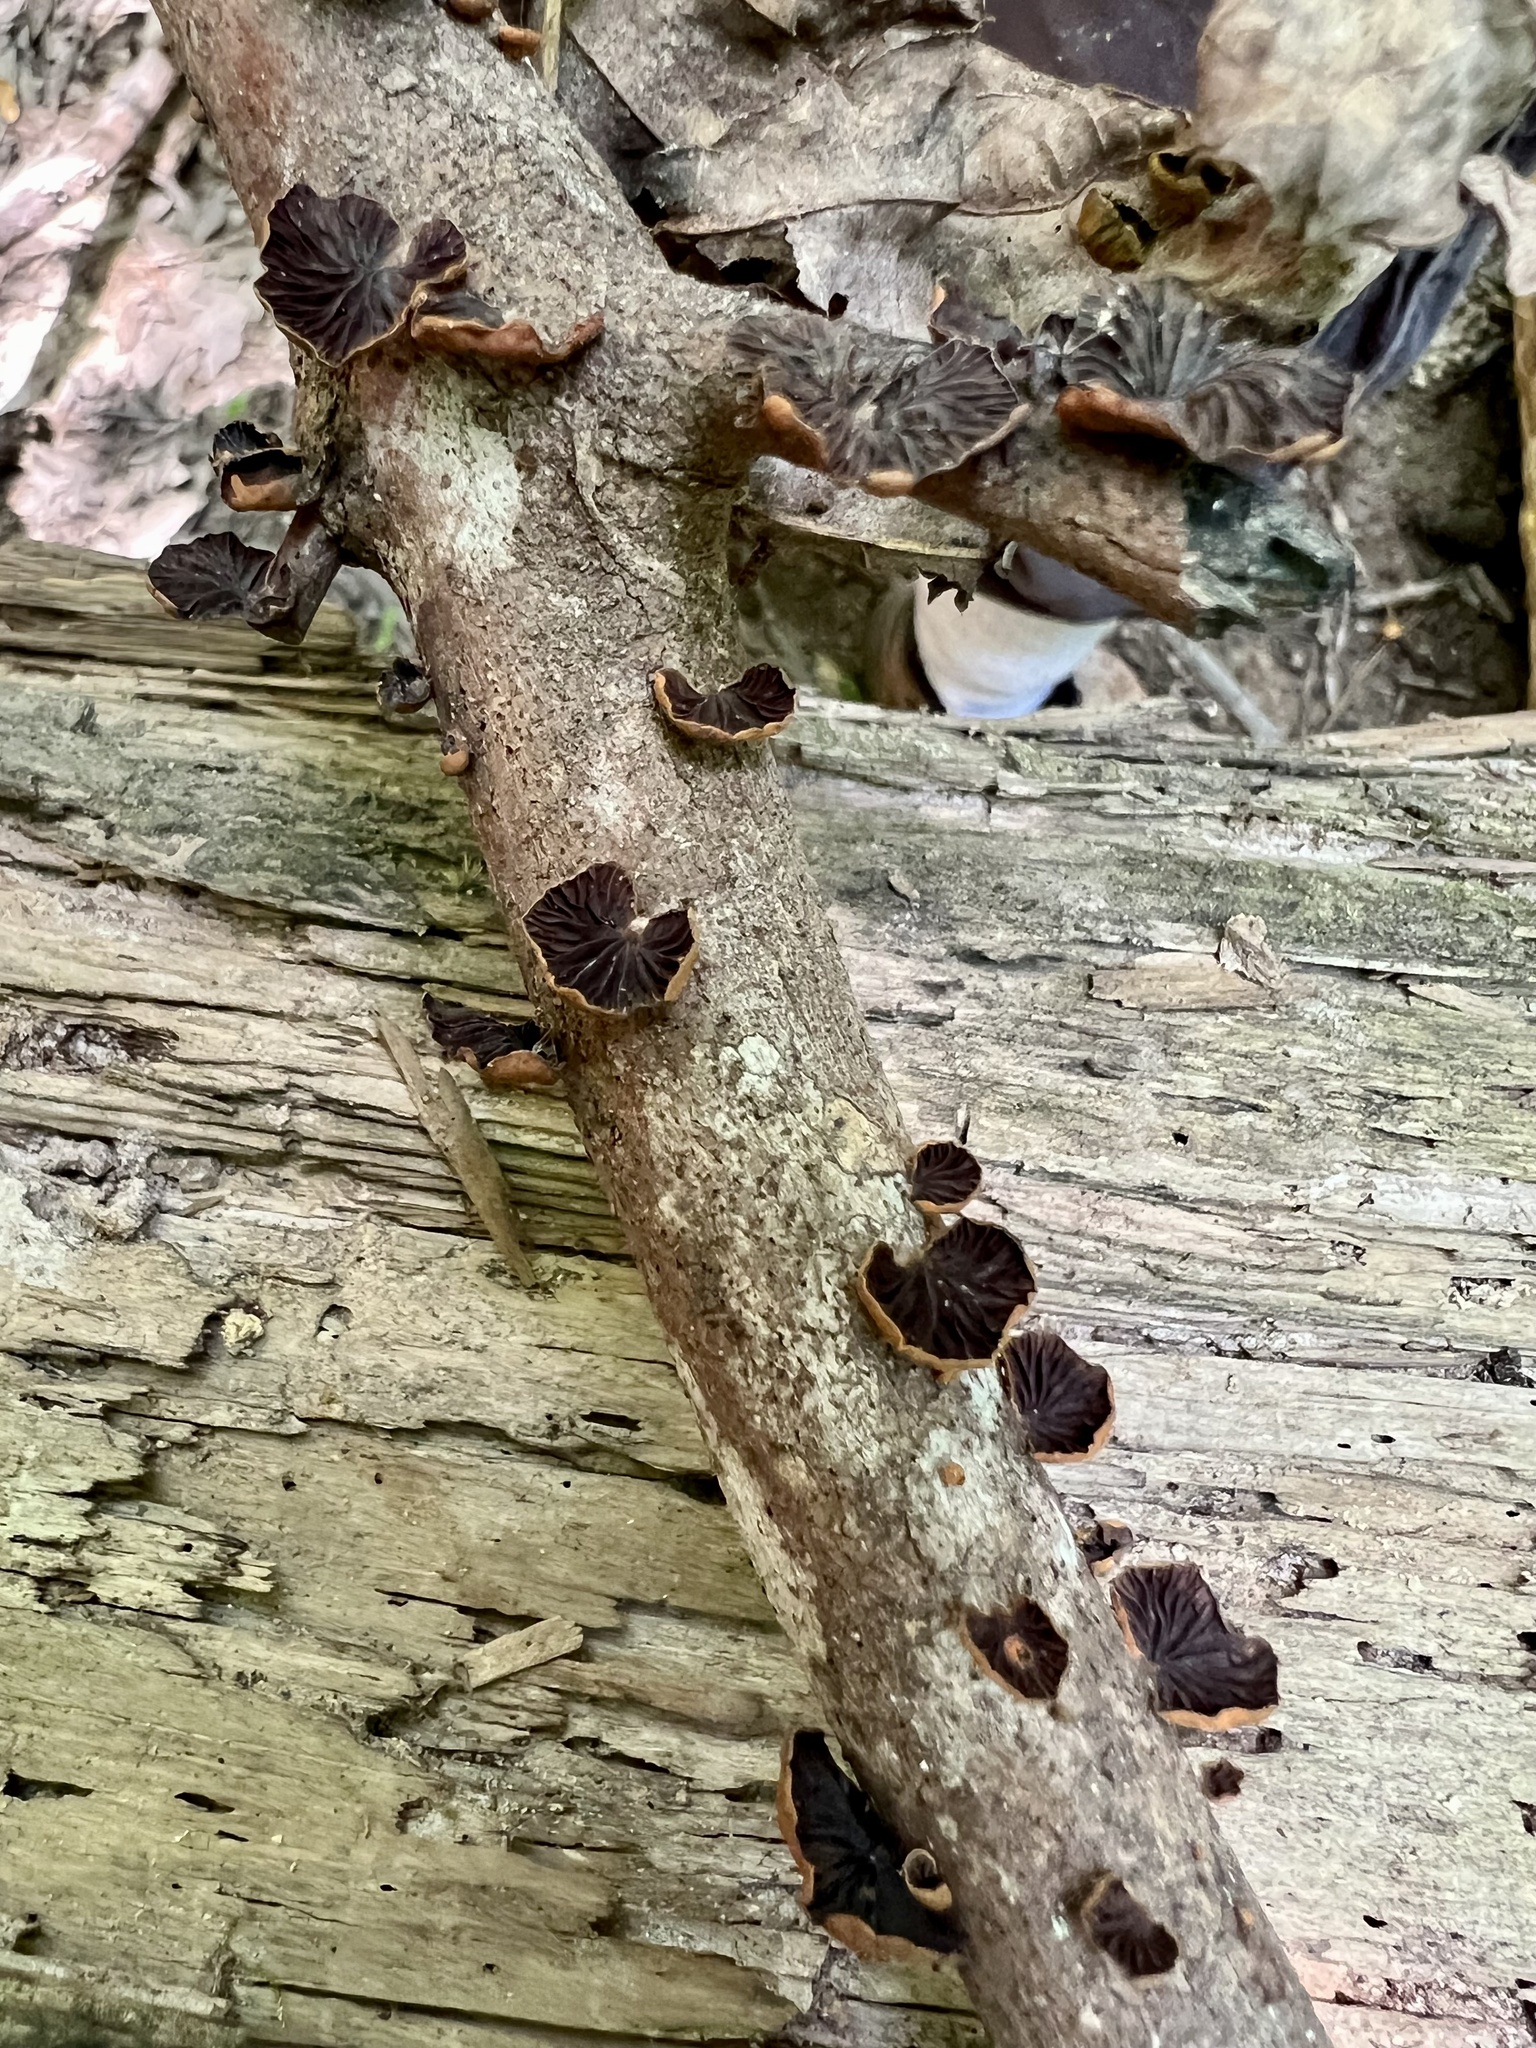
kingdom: Fungi
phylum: Basidiomycota
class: Agaricomycetes
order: Agaricales
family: Omphalotaceae
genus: Anthracophyllum
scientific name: Anthracophyllum lateritium
